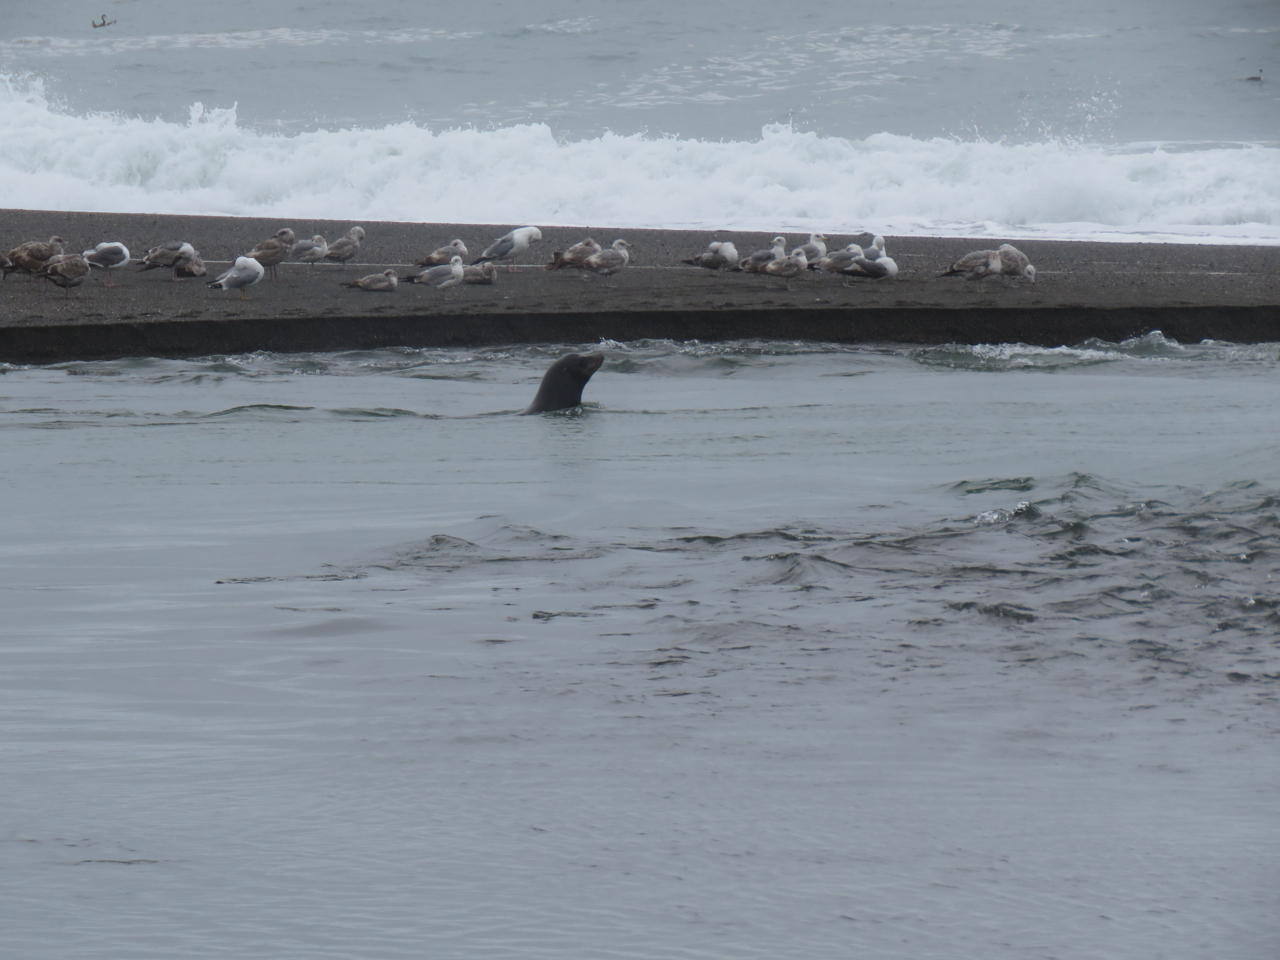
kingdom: Animalia
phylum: Chordata
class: Mammalia
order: Carnivora
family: Otariidae
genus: Zalophus
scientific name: Zalophus californianus
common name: California sea lion
